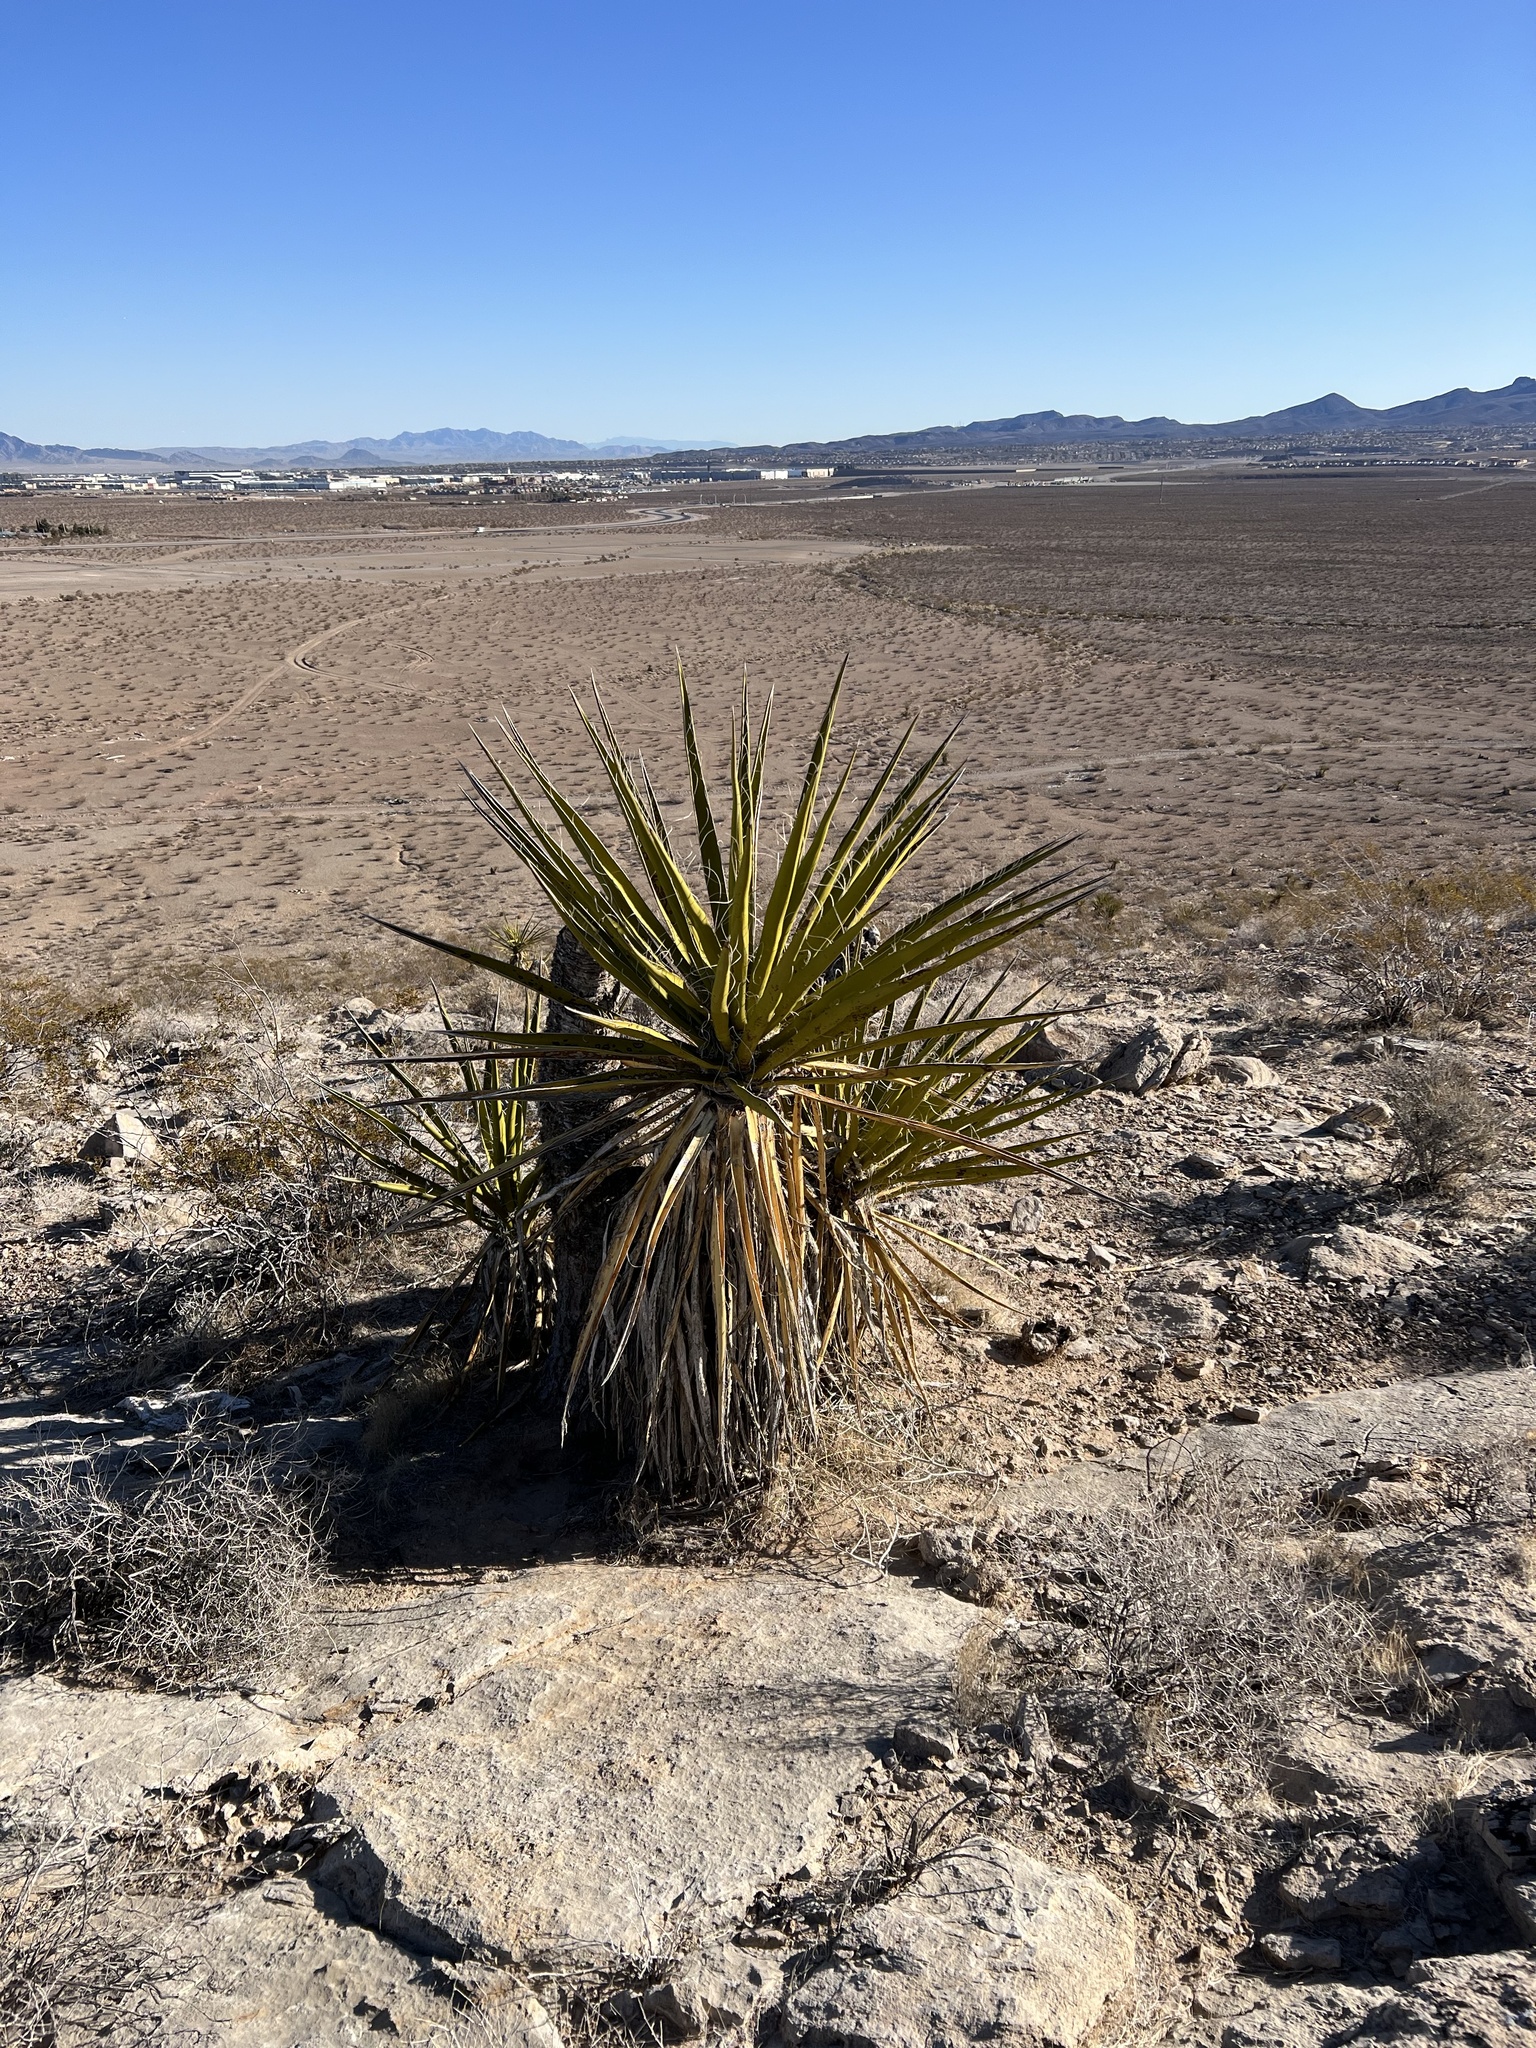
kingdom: Plantae
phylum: Tracheophyta
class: Liliopsida
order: Asparagales
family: Asparagaceae
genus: Yucca
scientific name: Yucca schidigera
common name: Mojave yucca
